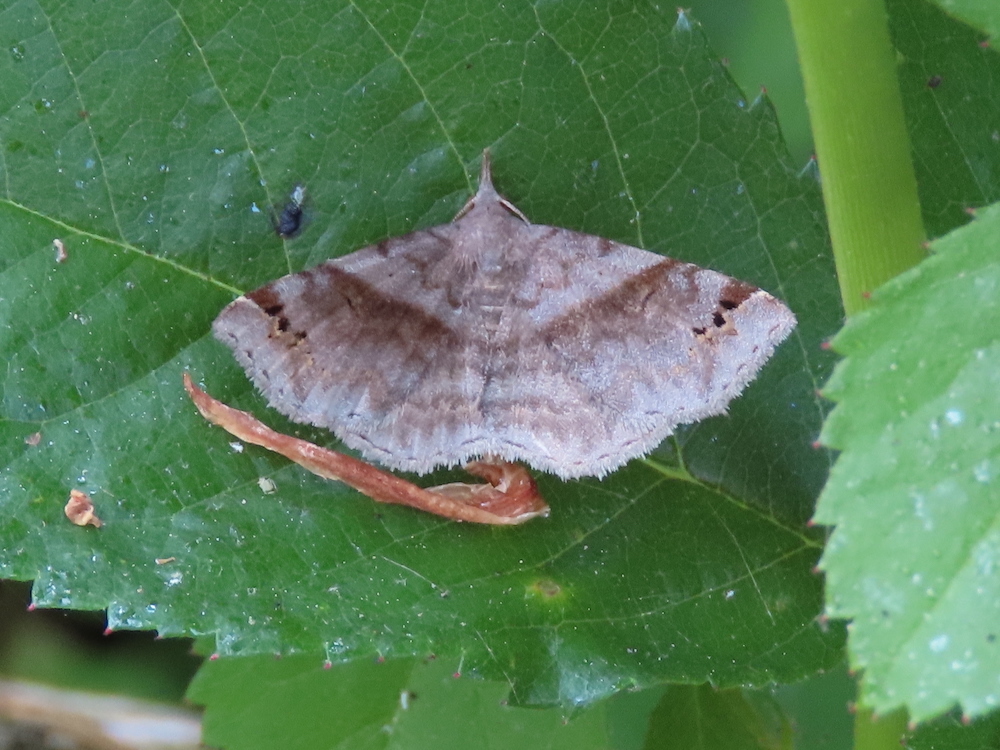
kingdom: Animalia
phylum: Arthropoda
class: Insecta
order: Lepidoptera
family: Erebidae
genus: Spargaloma
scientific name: Spargaloma sexpunctata
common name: Six-spotted gray
